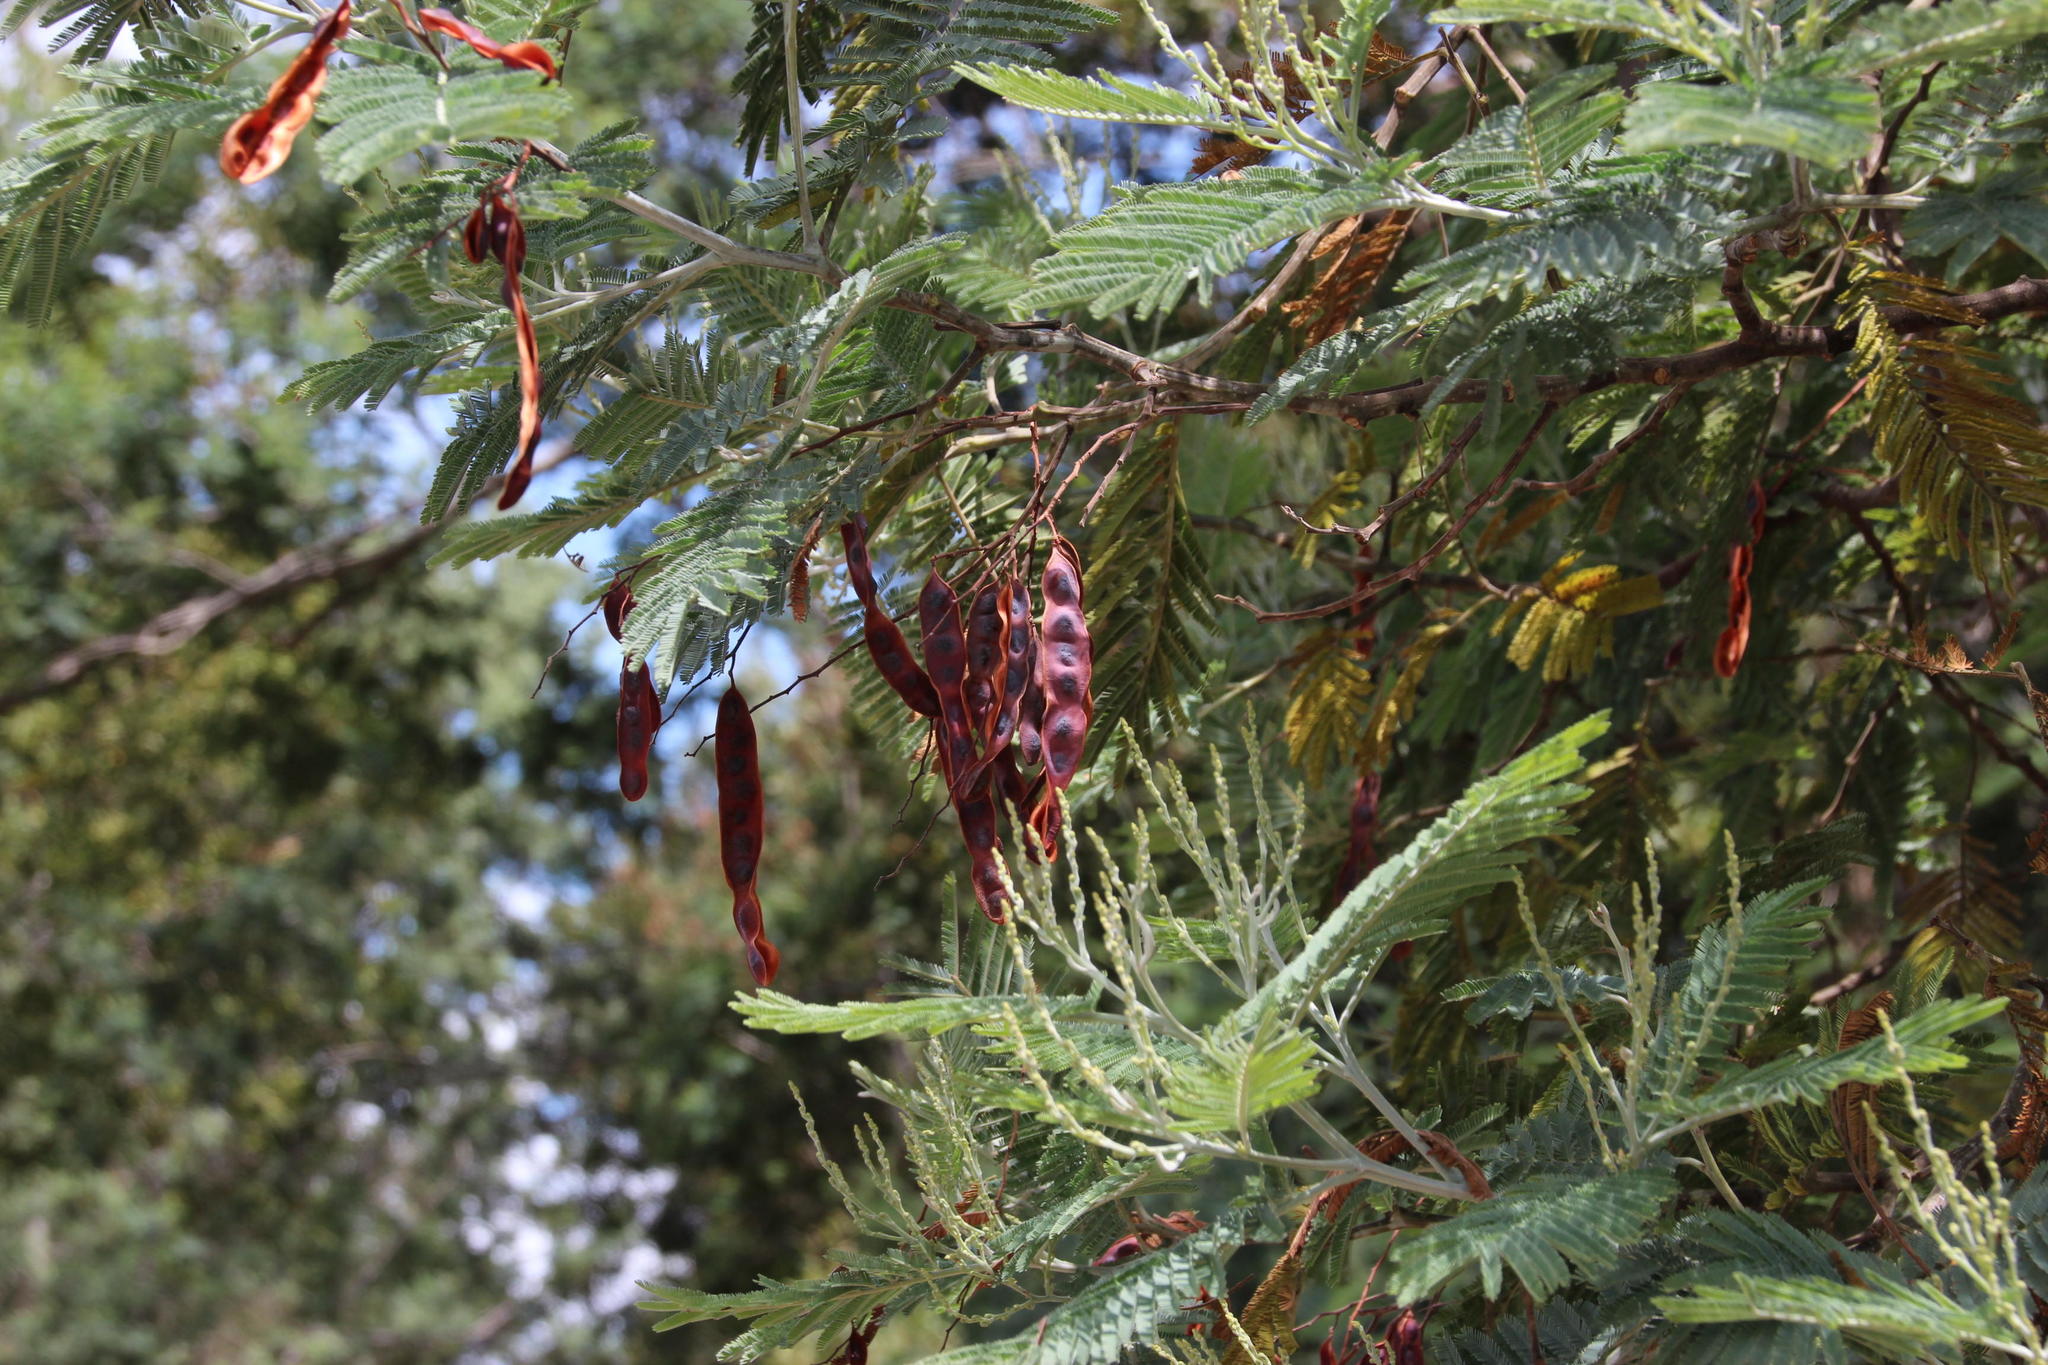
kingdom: Plantae
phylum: Tracheophyta
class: Magnoliopsida
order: Fabales
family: Fabaceae
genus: Acacia
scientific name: Acacia dealbata
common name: Silver wattle
